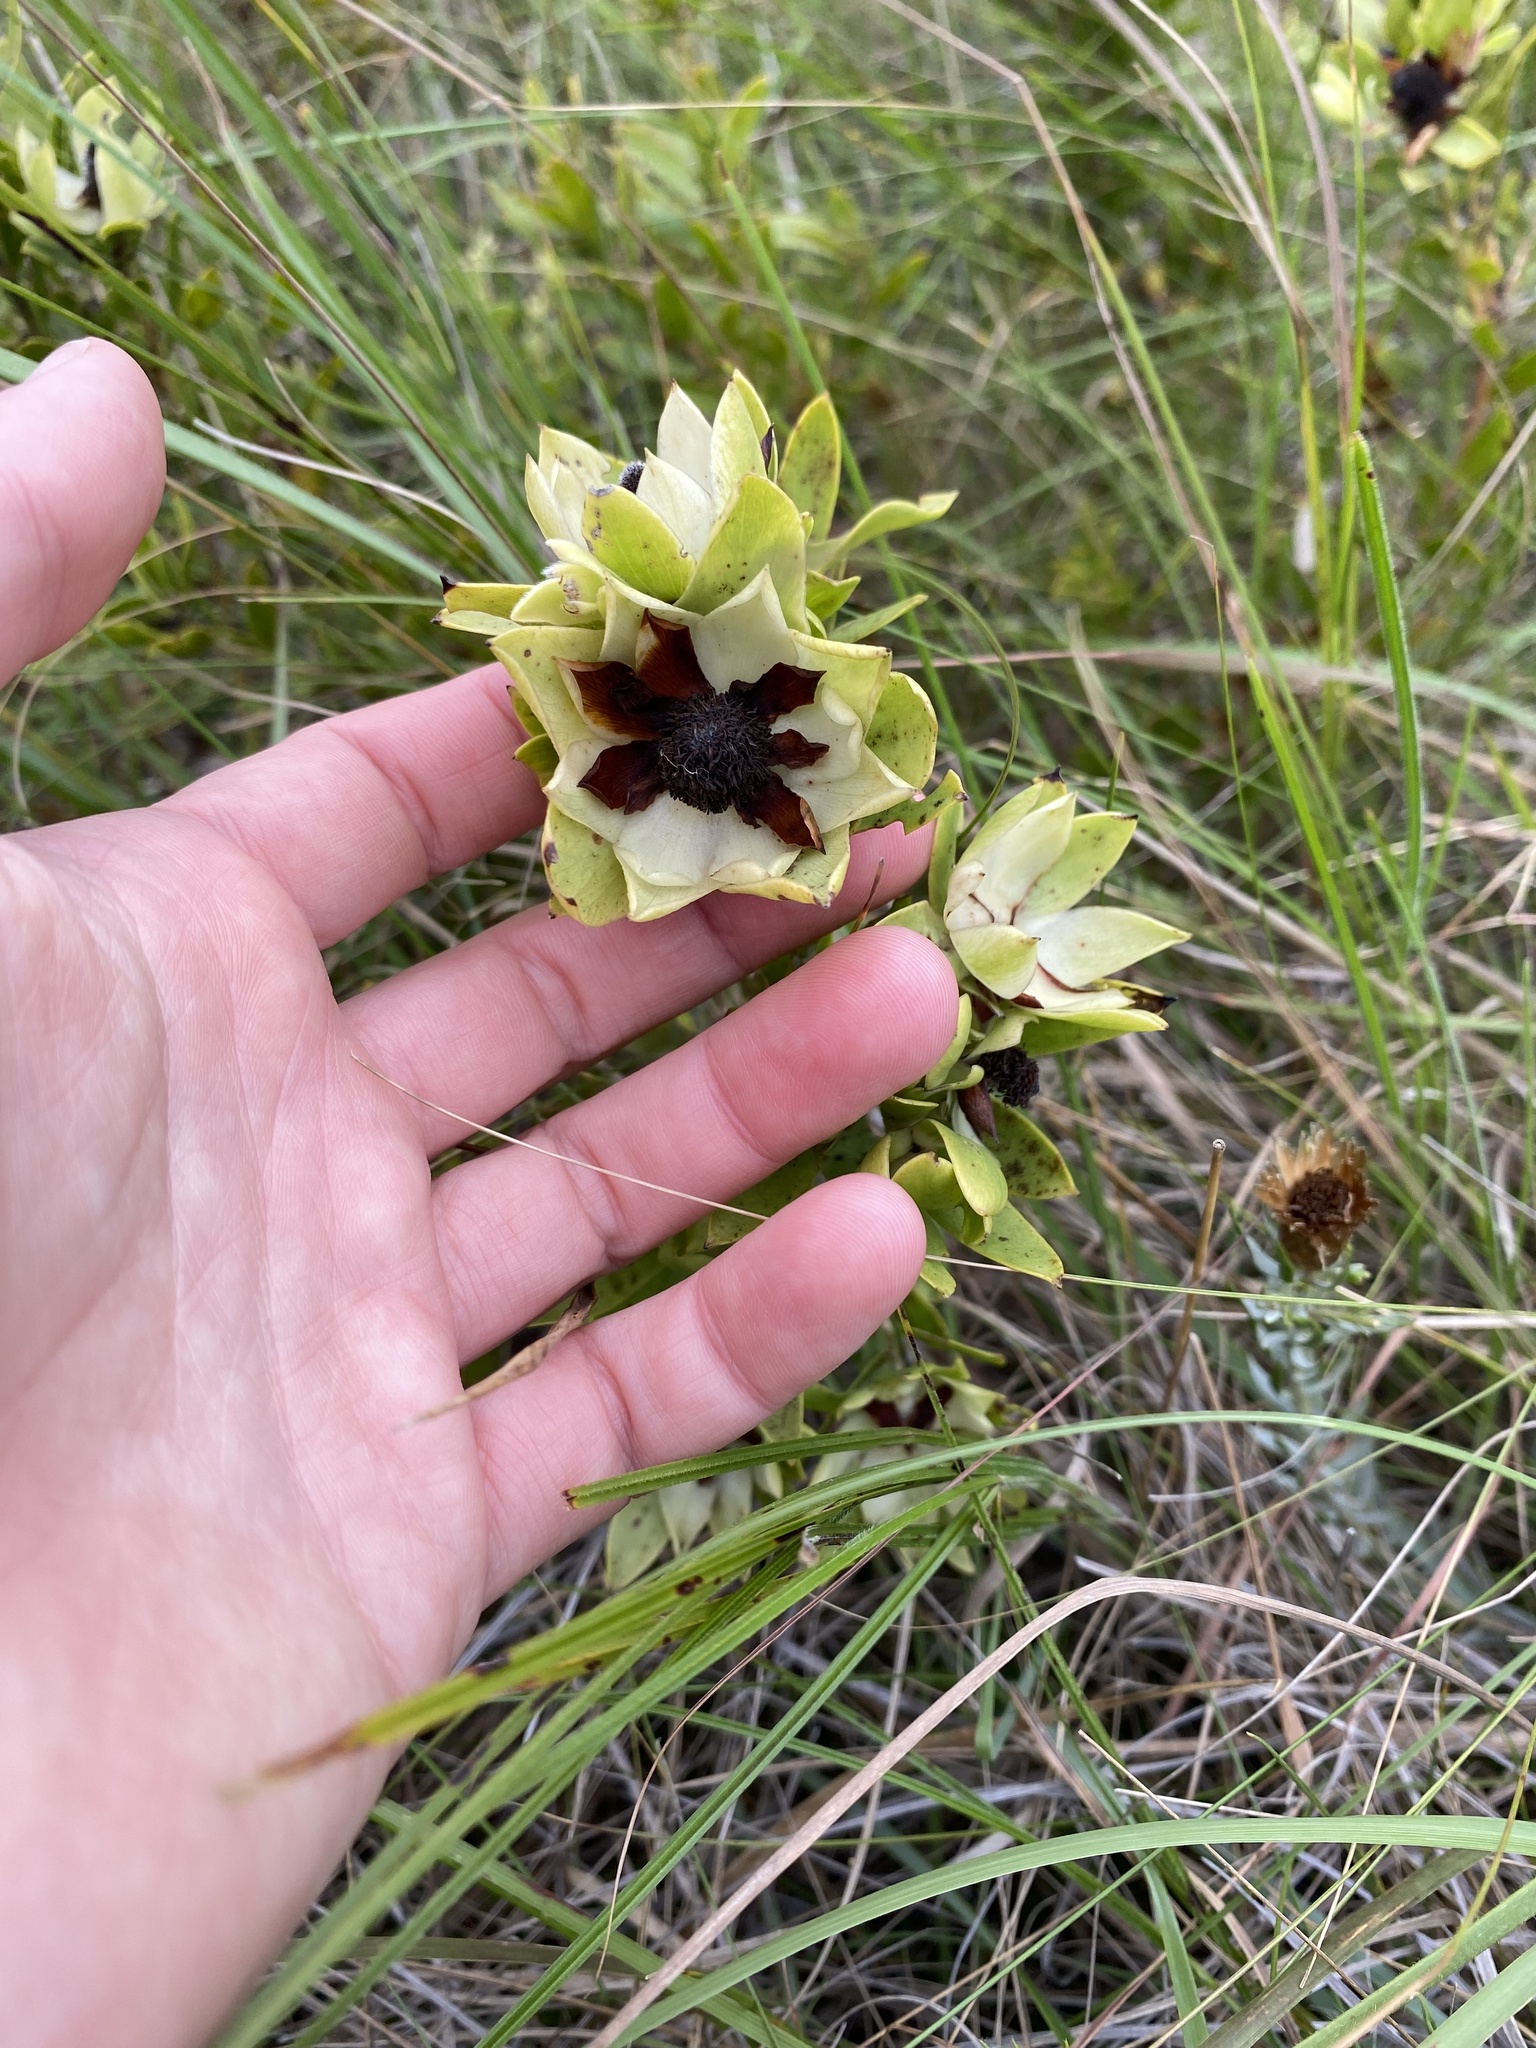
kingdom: Plantae
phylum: Tracheophyta
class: Magnoliopsida
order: Proteales
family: Proteaceae
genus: Leucadendron
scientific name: Leucadendron spissifolium
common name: Spear-leaf conebush
